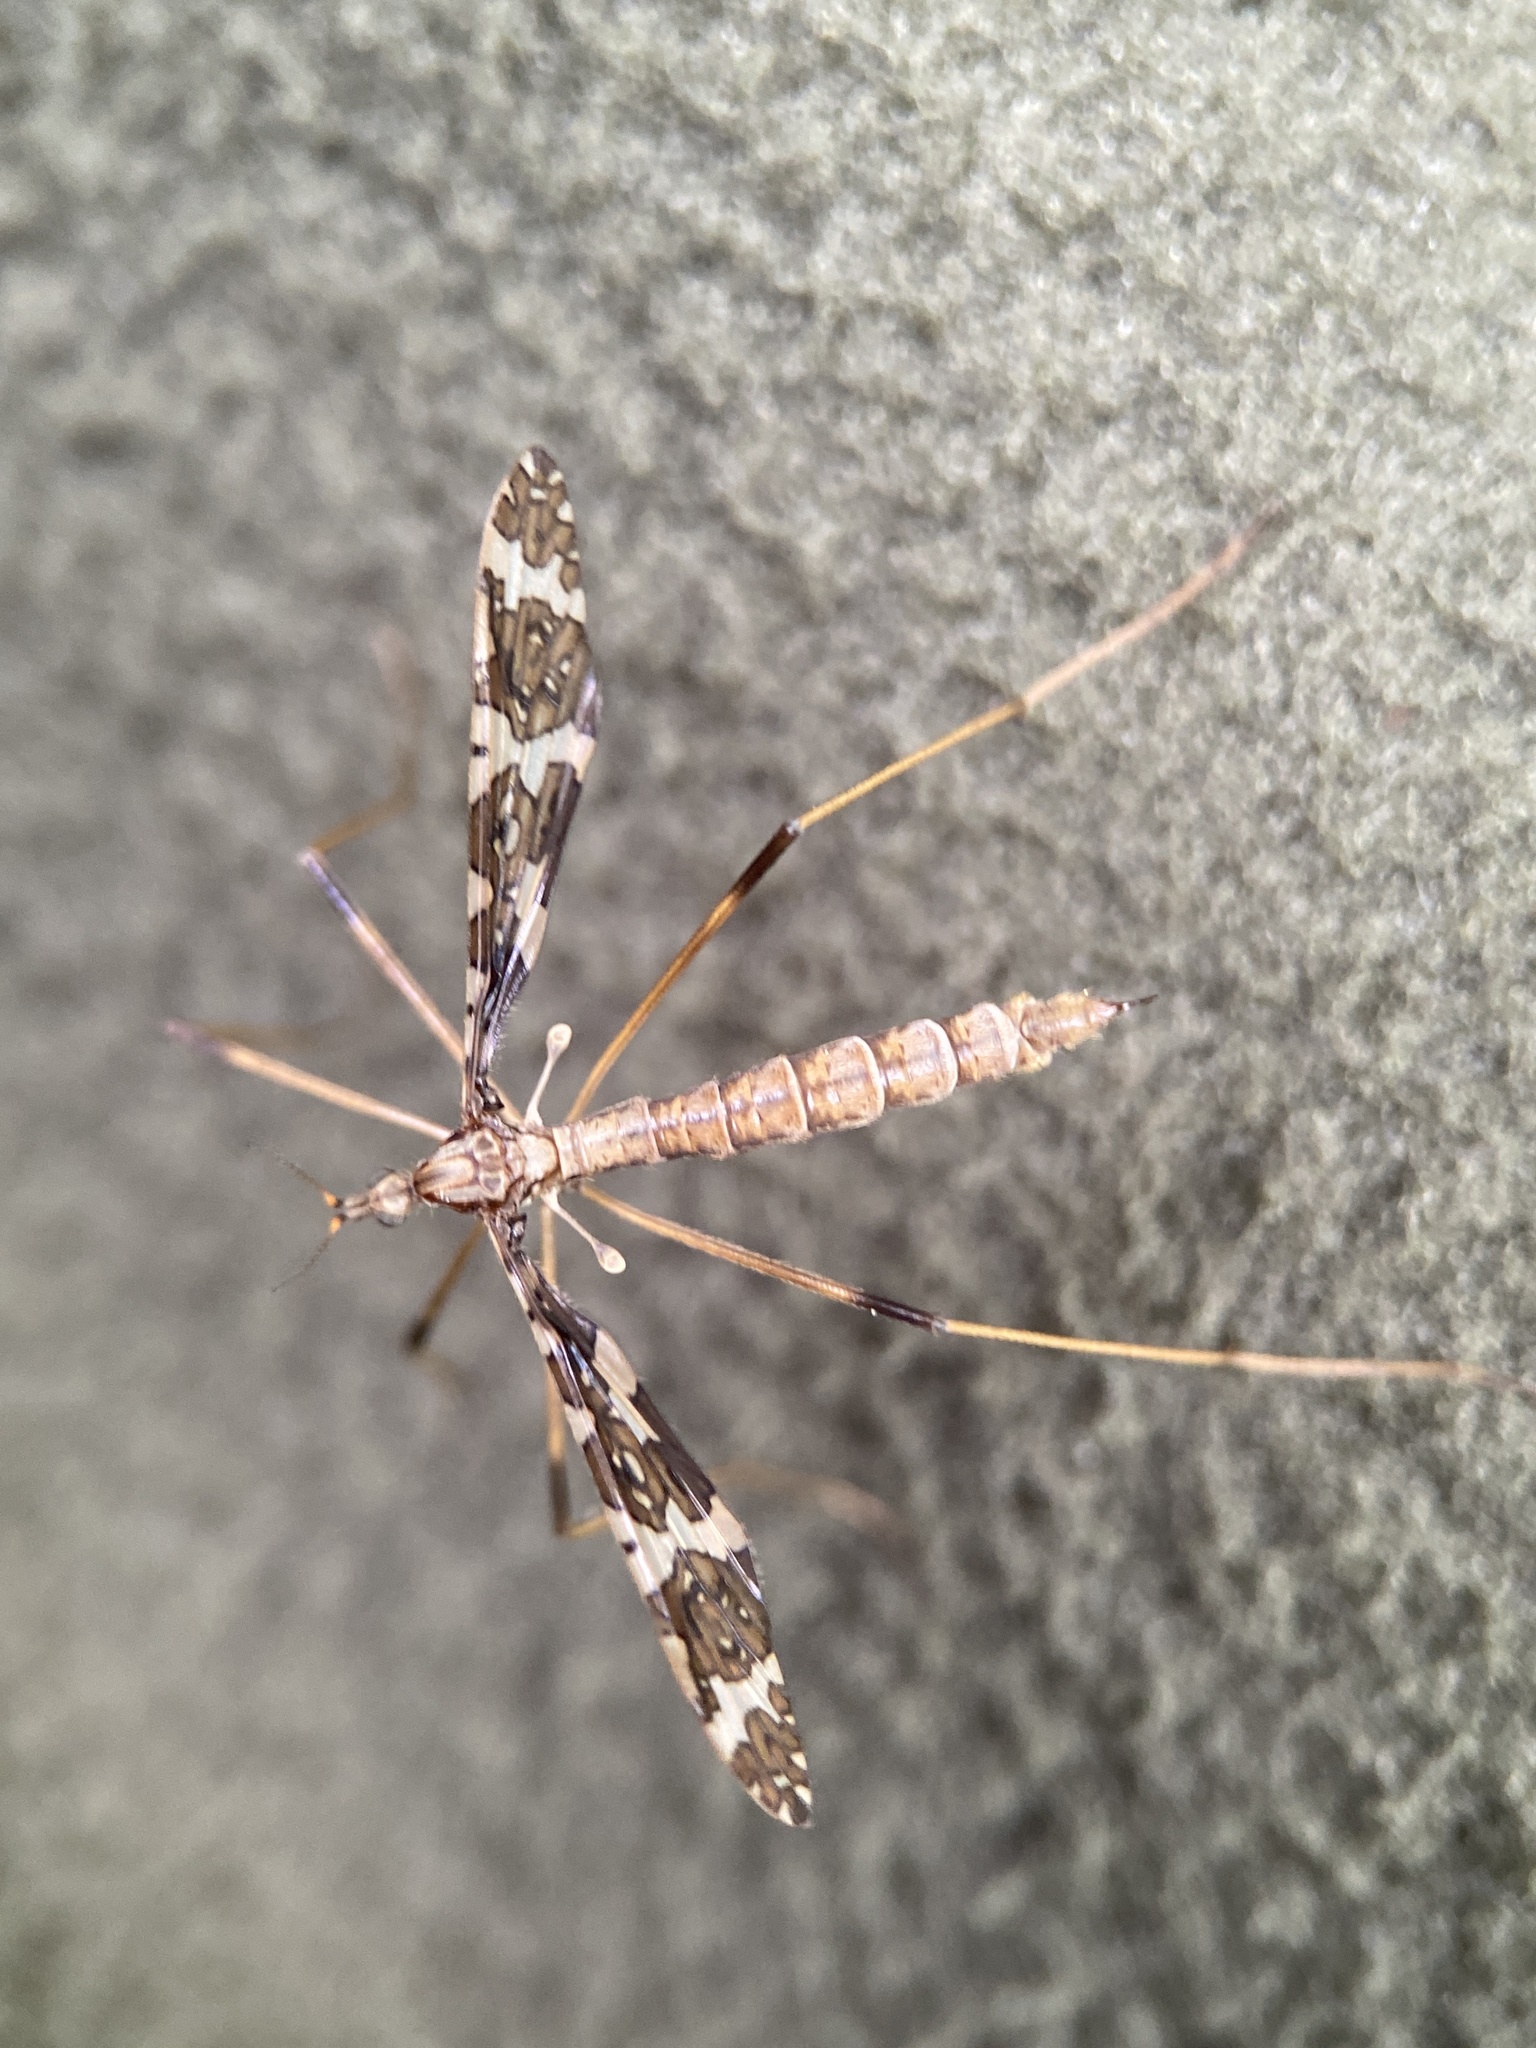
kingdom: Animalia
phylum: Arthropoda
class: Insecta
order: Diptera
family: Limoniidae
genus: Epiphragma
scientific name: Epiphragma fasciapenne
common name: Band-winged crane fly
